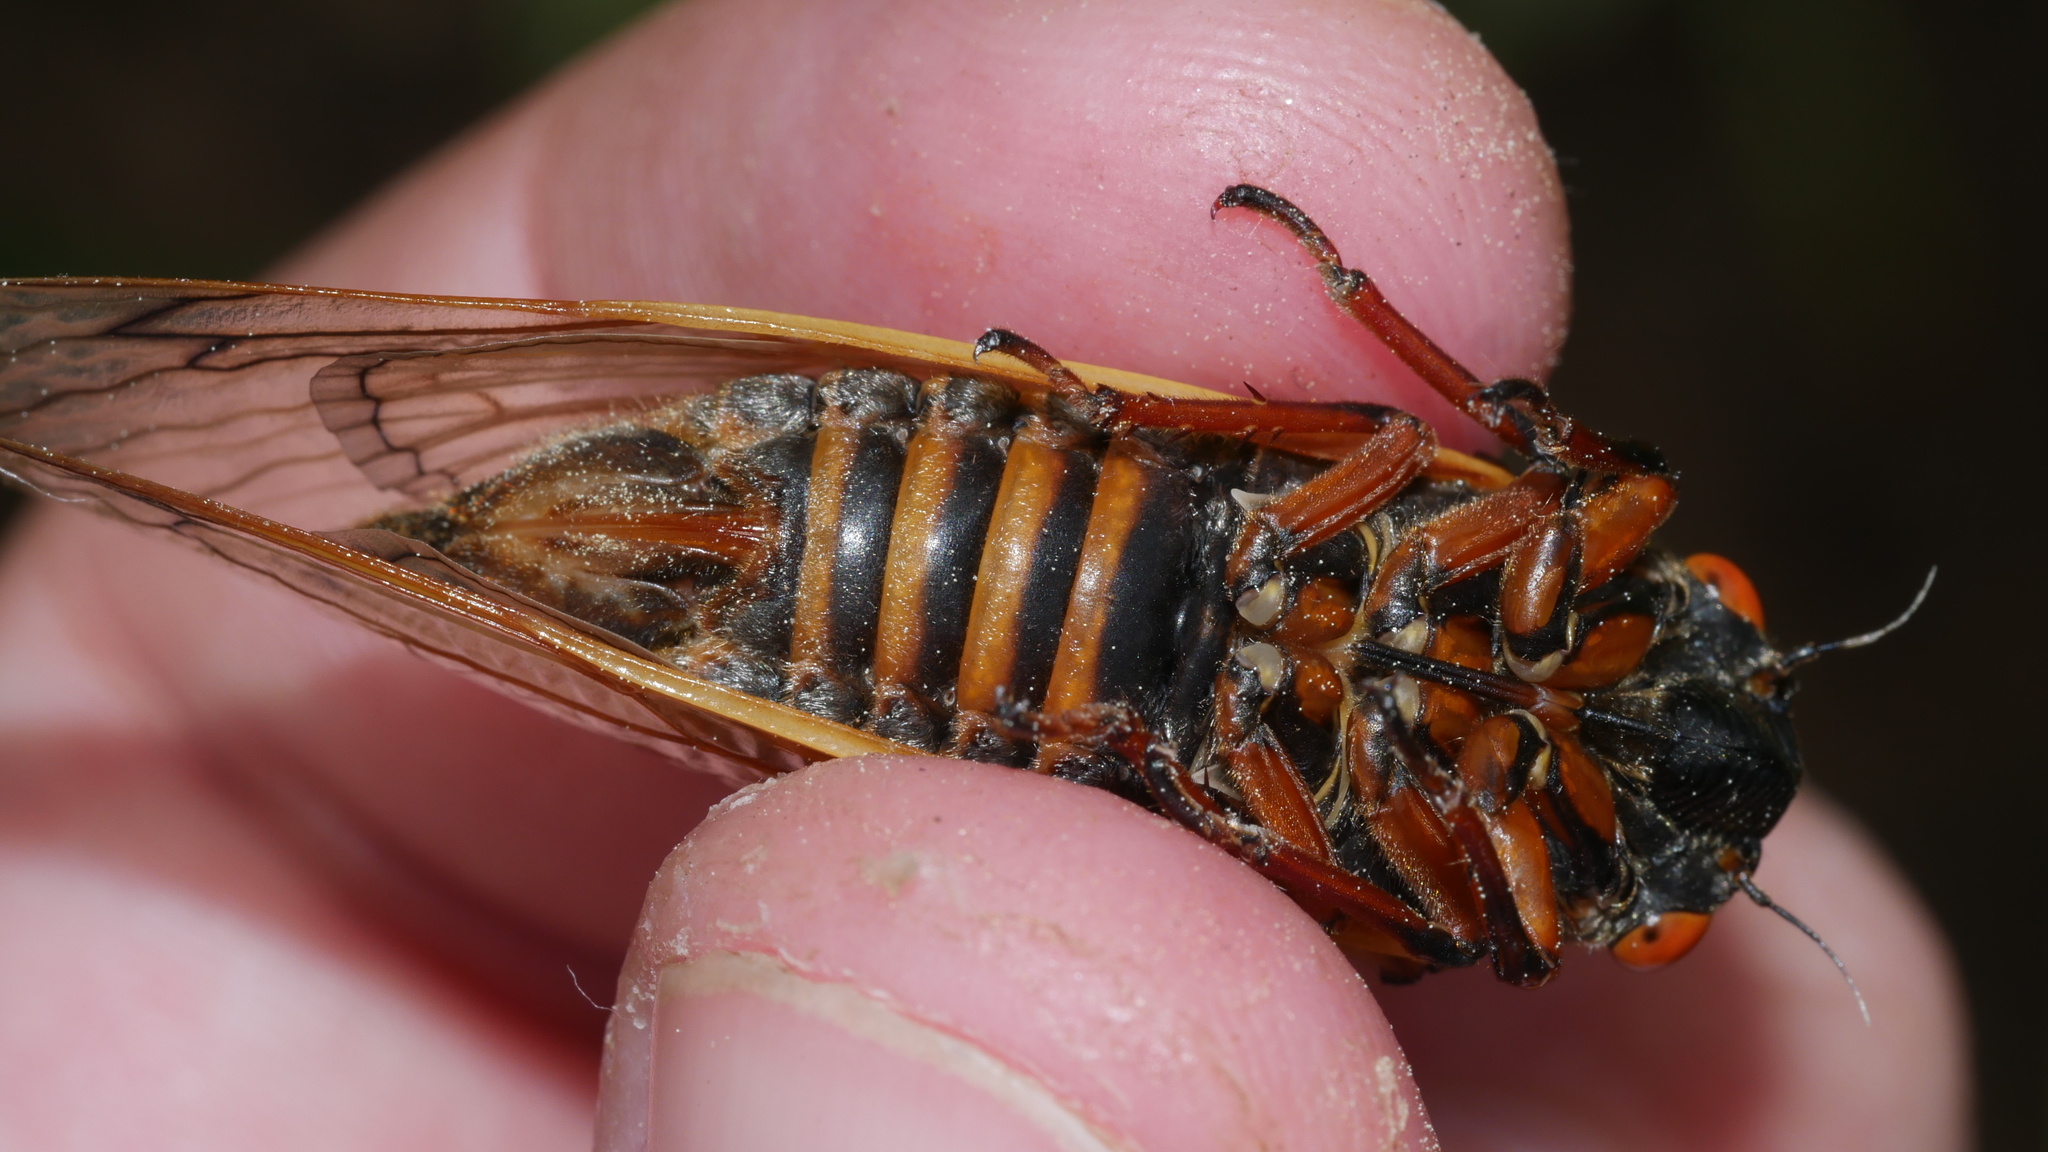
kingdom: Animalia
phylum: Arthropoda
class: Insecta
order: Hemiptera
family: Cicadidae
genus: Magicicada
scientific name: Magicicada septendecim
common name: Periodical cicada
